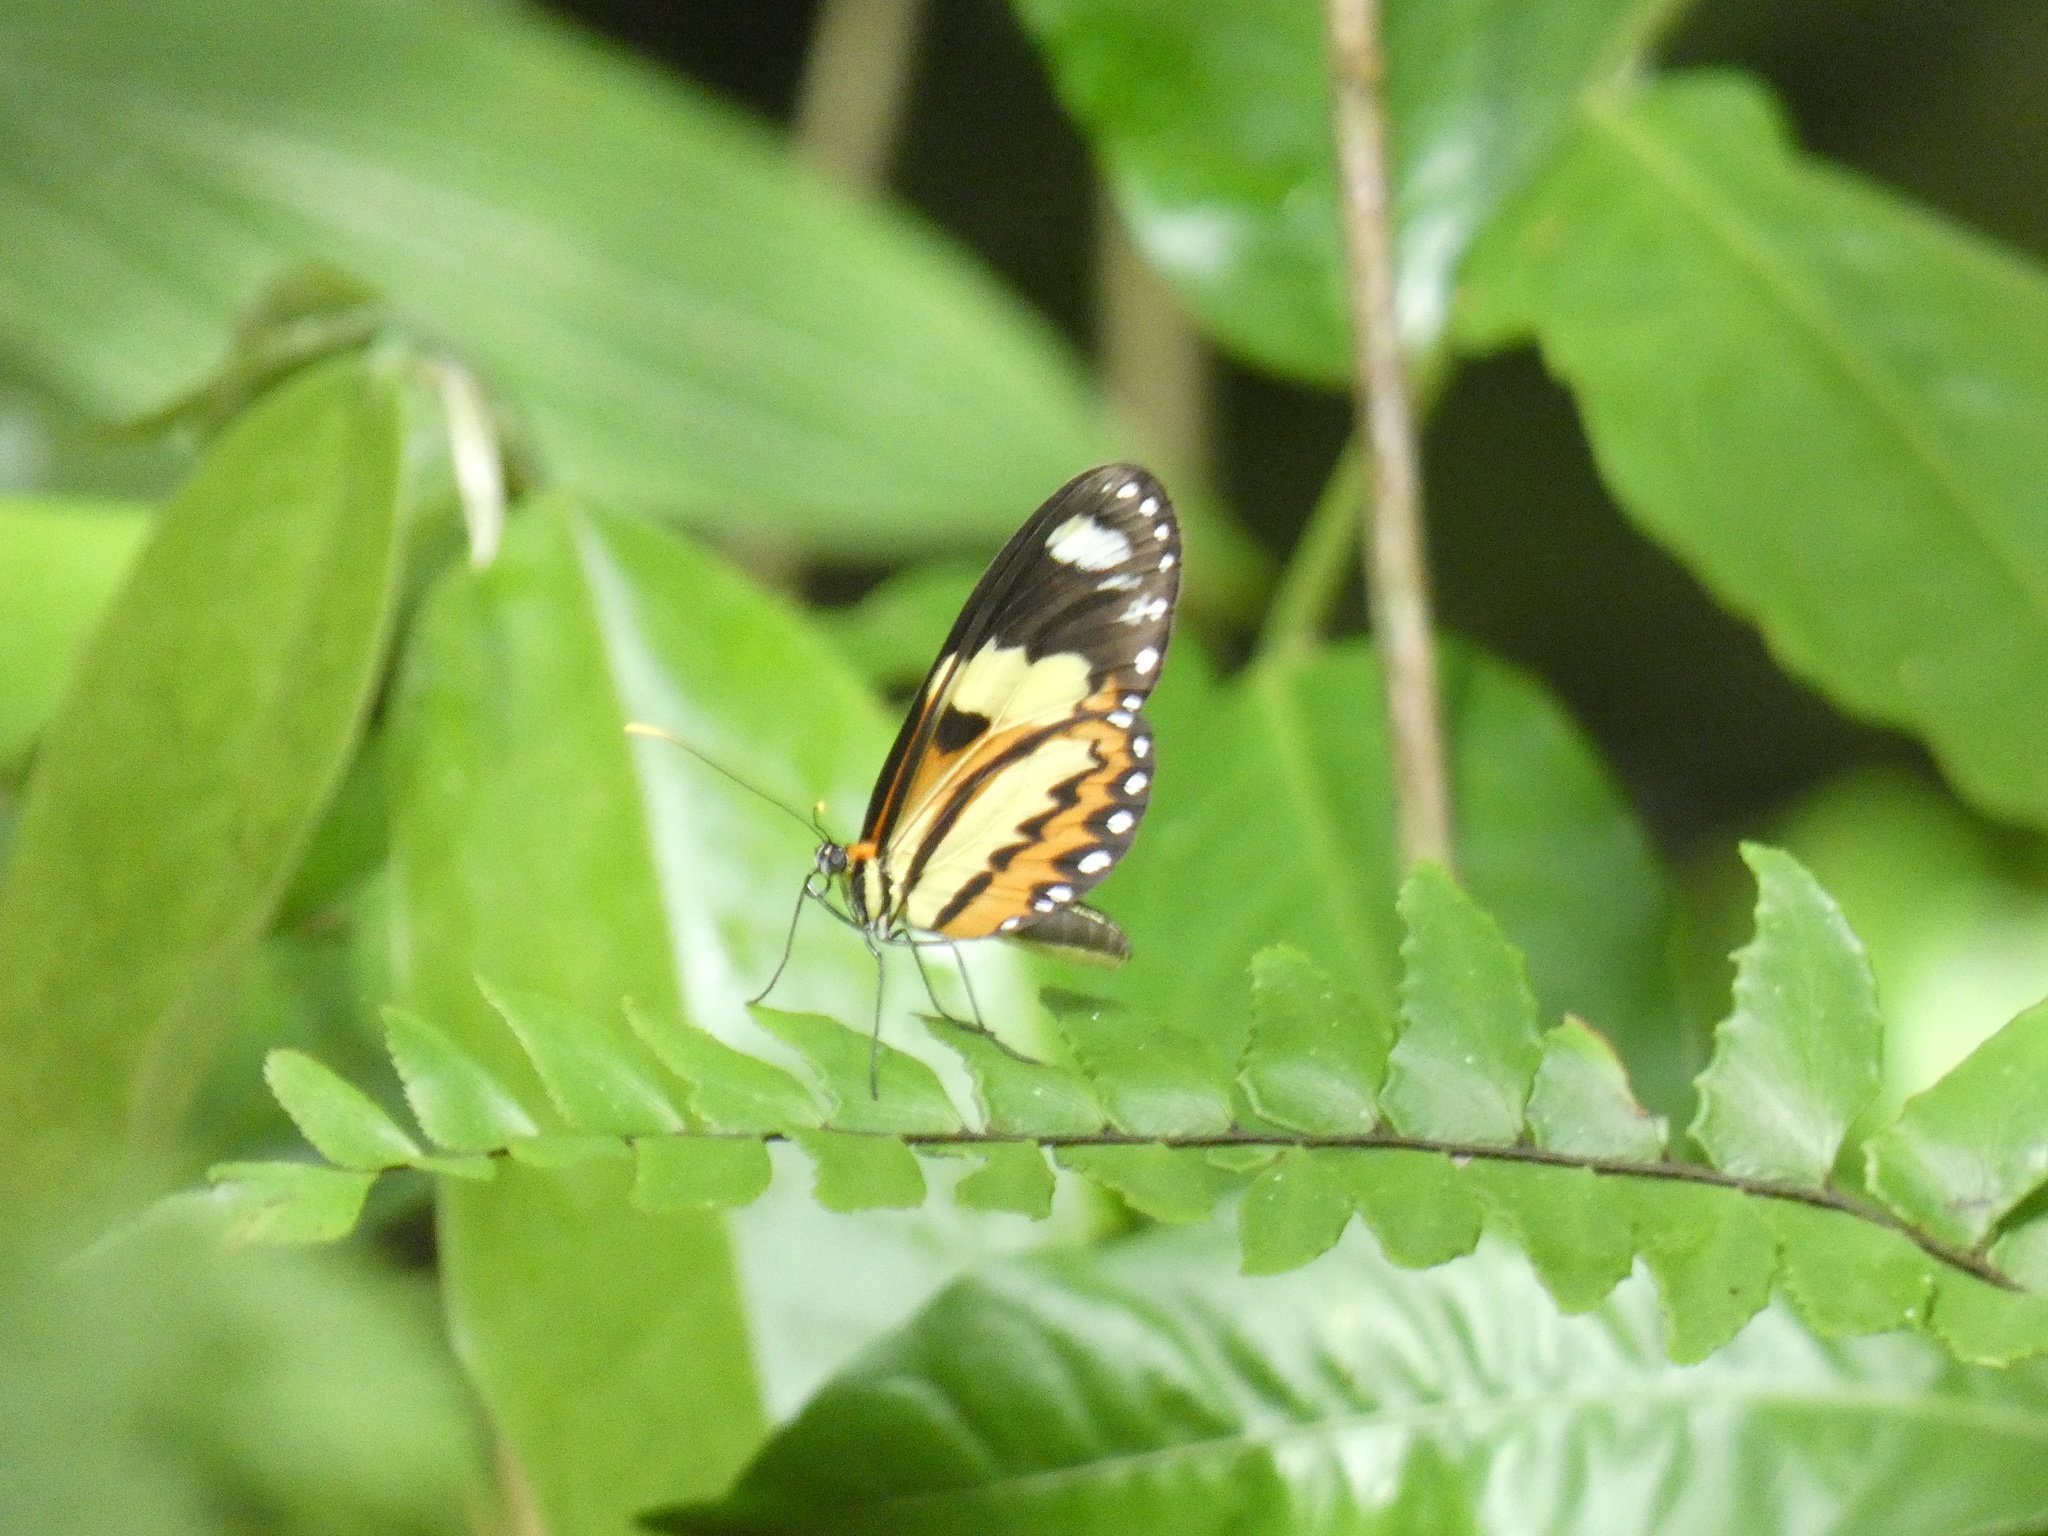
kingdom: Animalia
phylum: Arthropoda
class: Insecta
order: Lepidoptera
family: Nymphalidae
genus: Mechanitis
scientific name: Mechanitis lysimnia
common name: Lysimnia tigerwing
